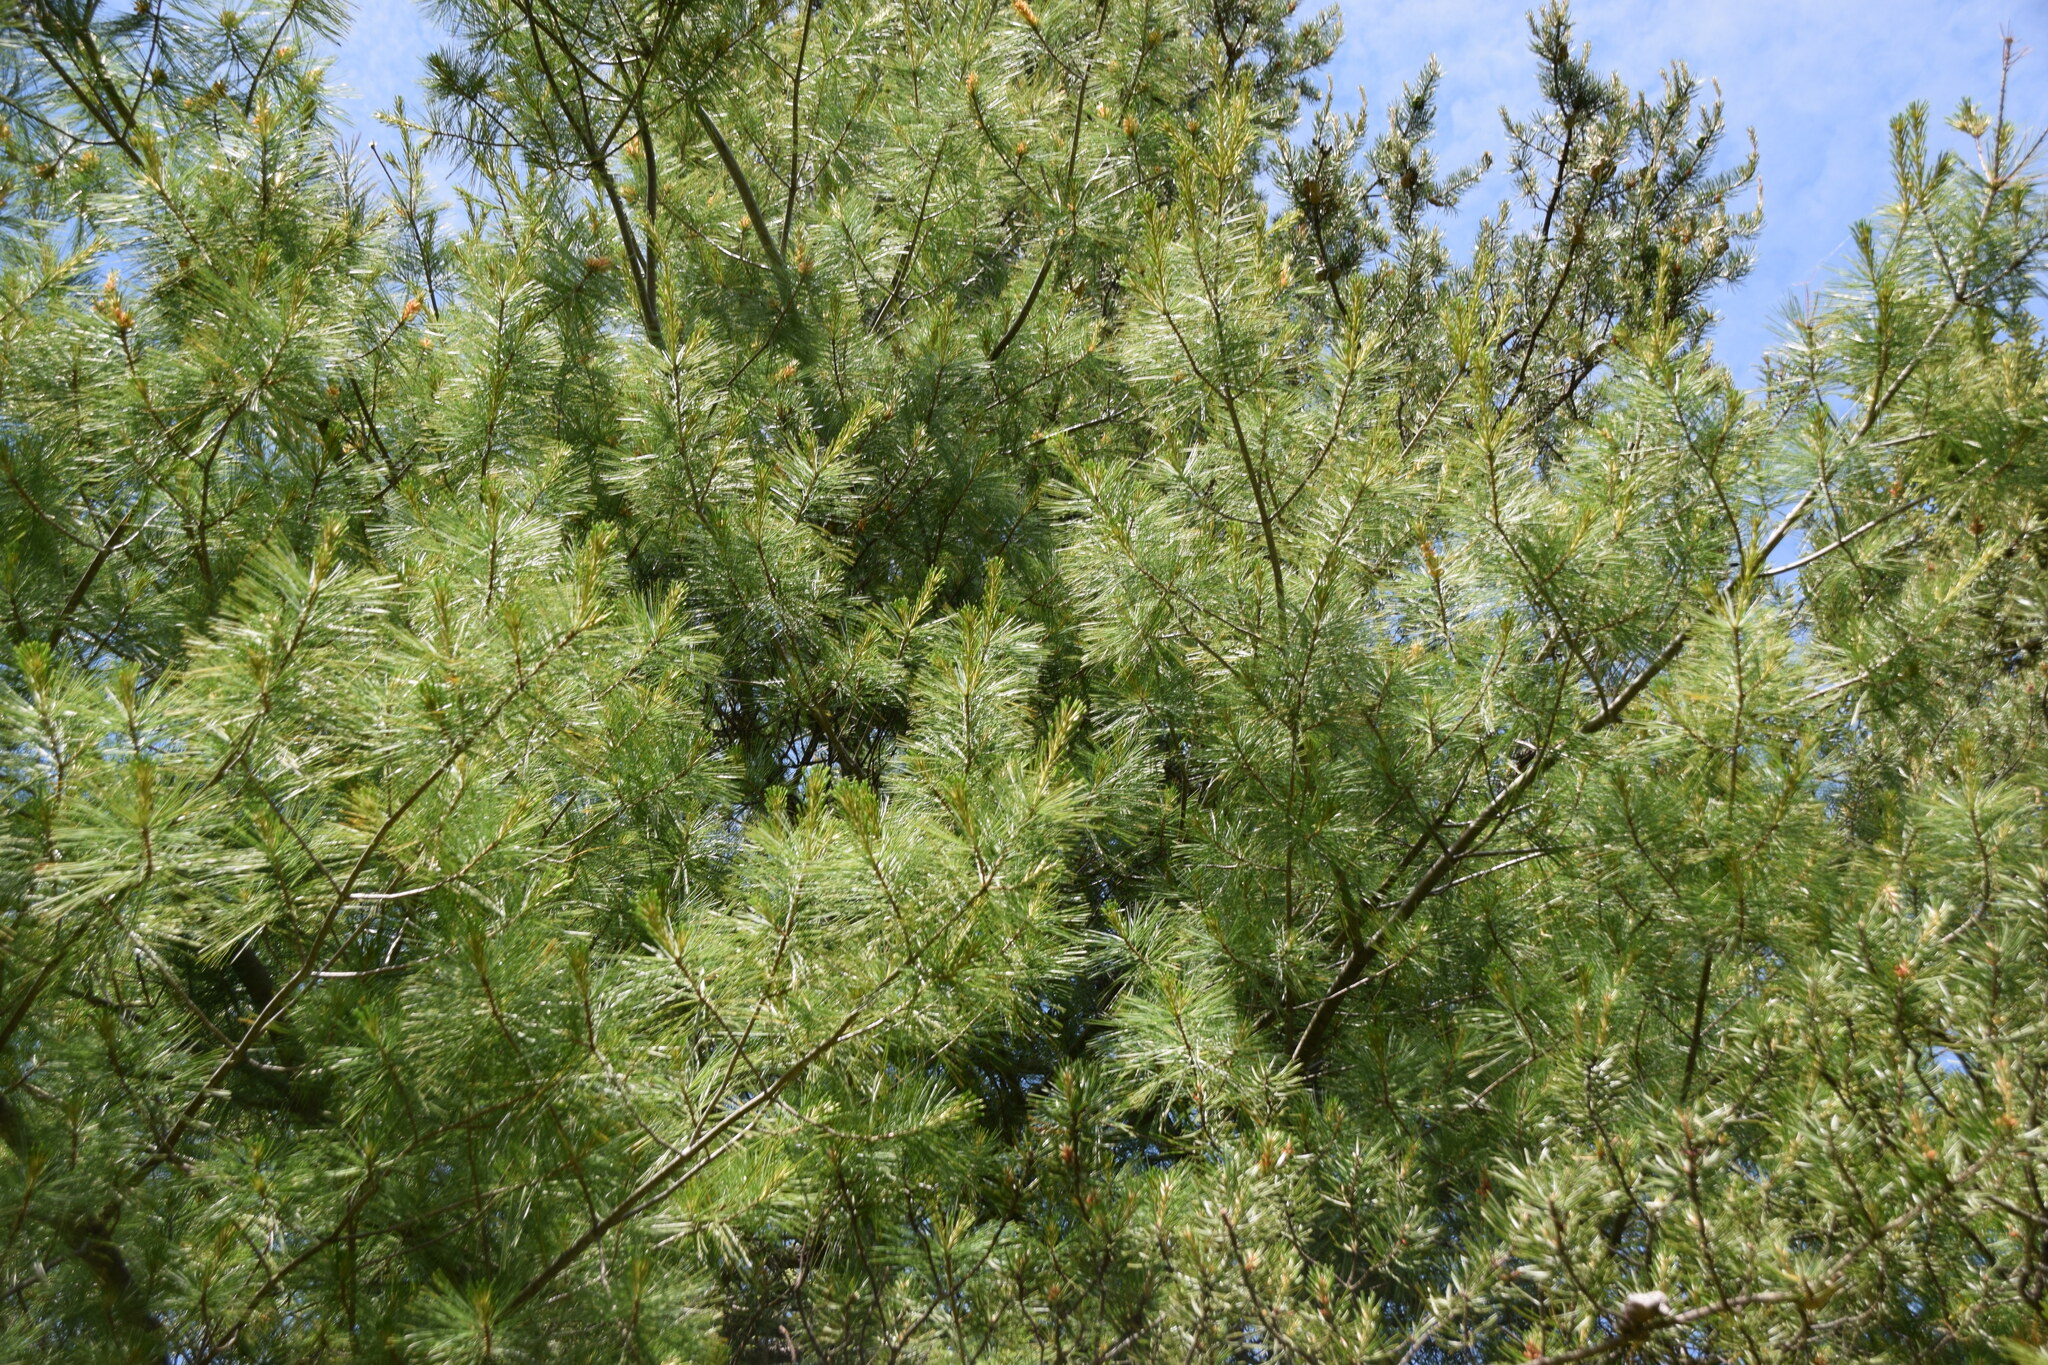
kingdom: Plantae
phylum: Tracheophyta
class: Pinopsida
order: Pinales
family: Pinaceae
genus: Pinus
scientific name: Pinus strobus
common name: Weymouth pine
